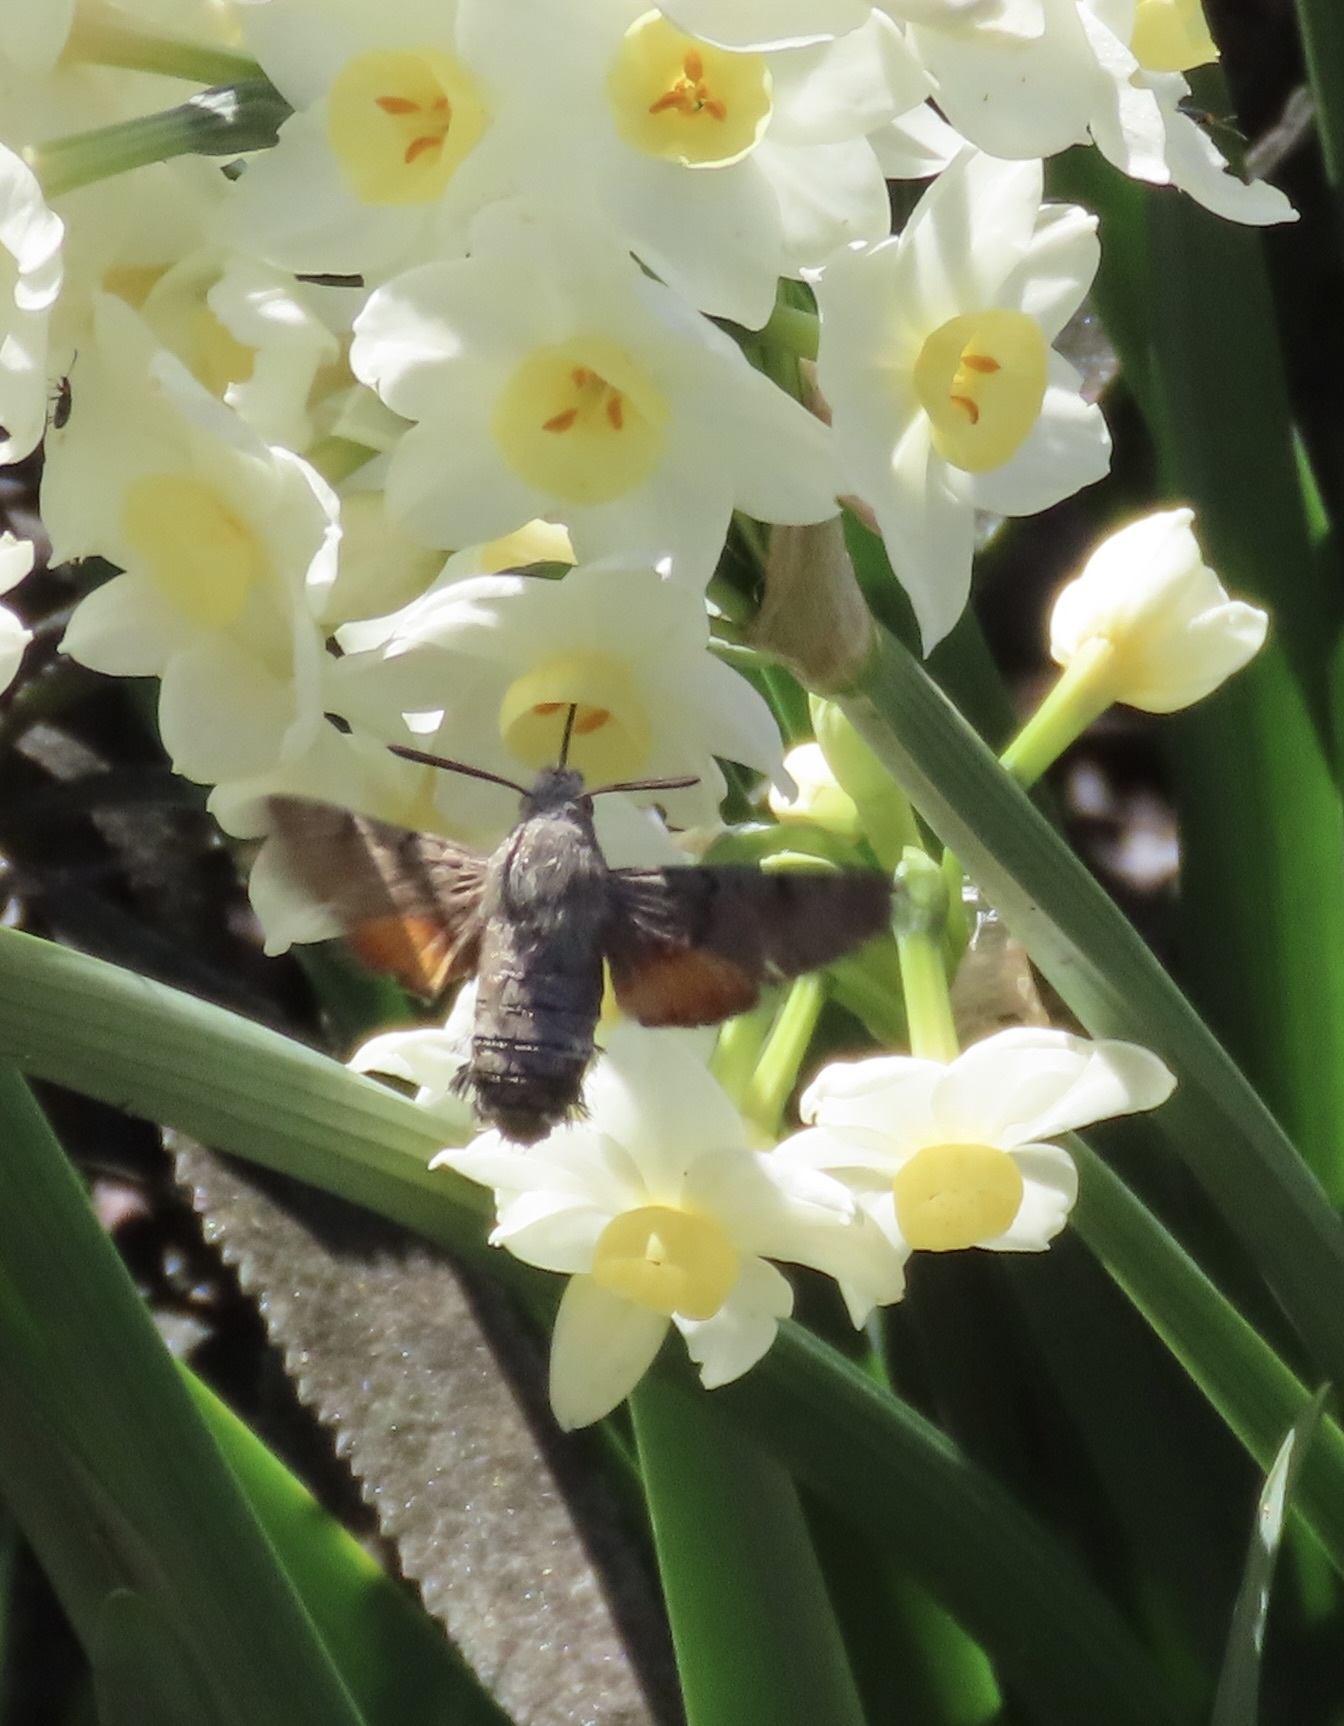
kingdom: Animalia
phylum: Arthropoda
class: Insecta
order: Lepidoptera
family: Sphingidae
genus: Macroglossum
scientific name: Macroglossum stellatarum
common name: Humming-bird hawk-moth
